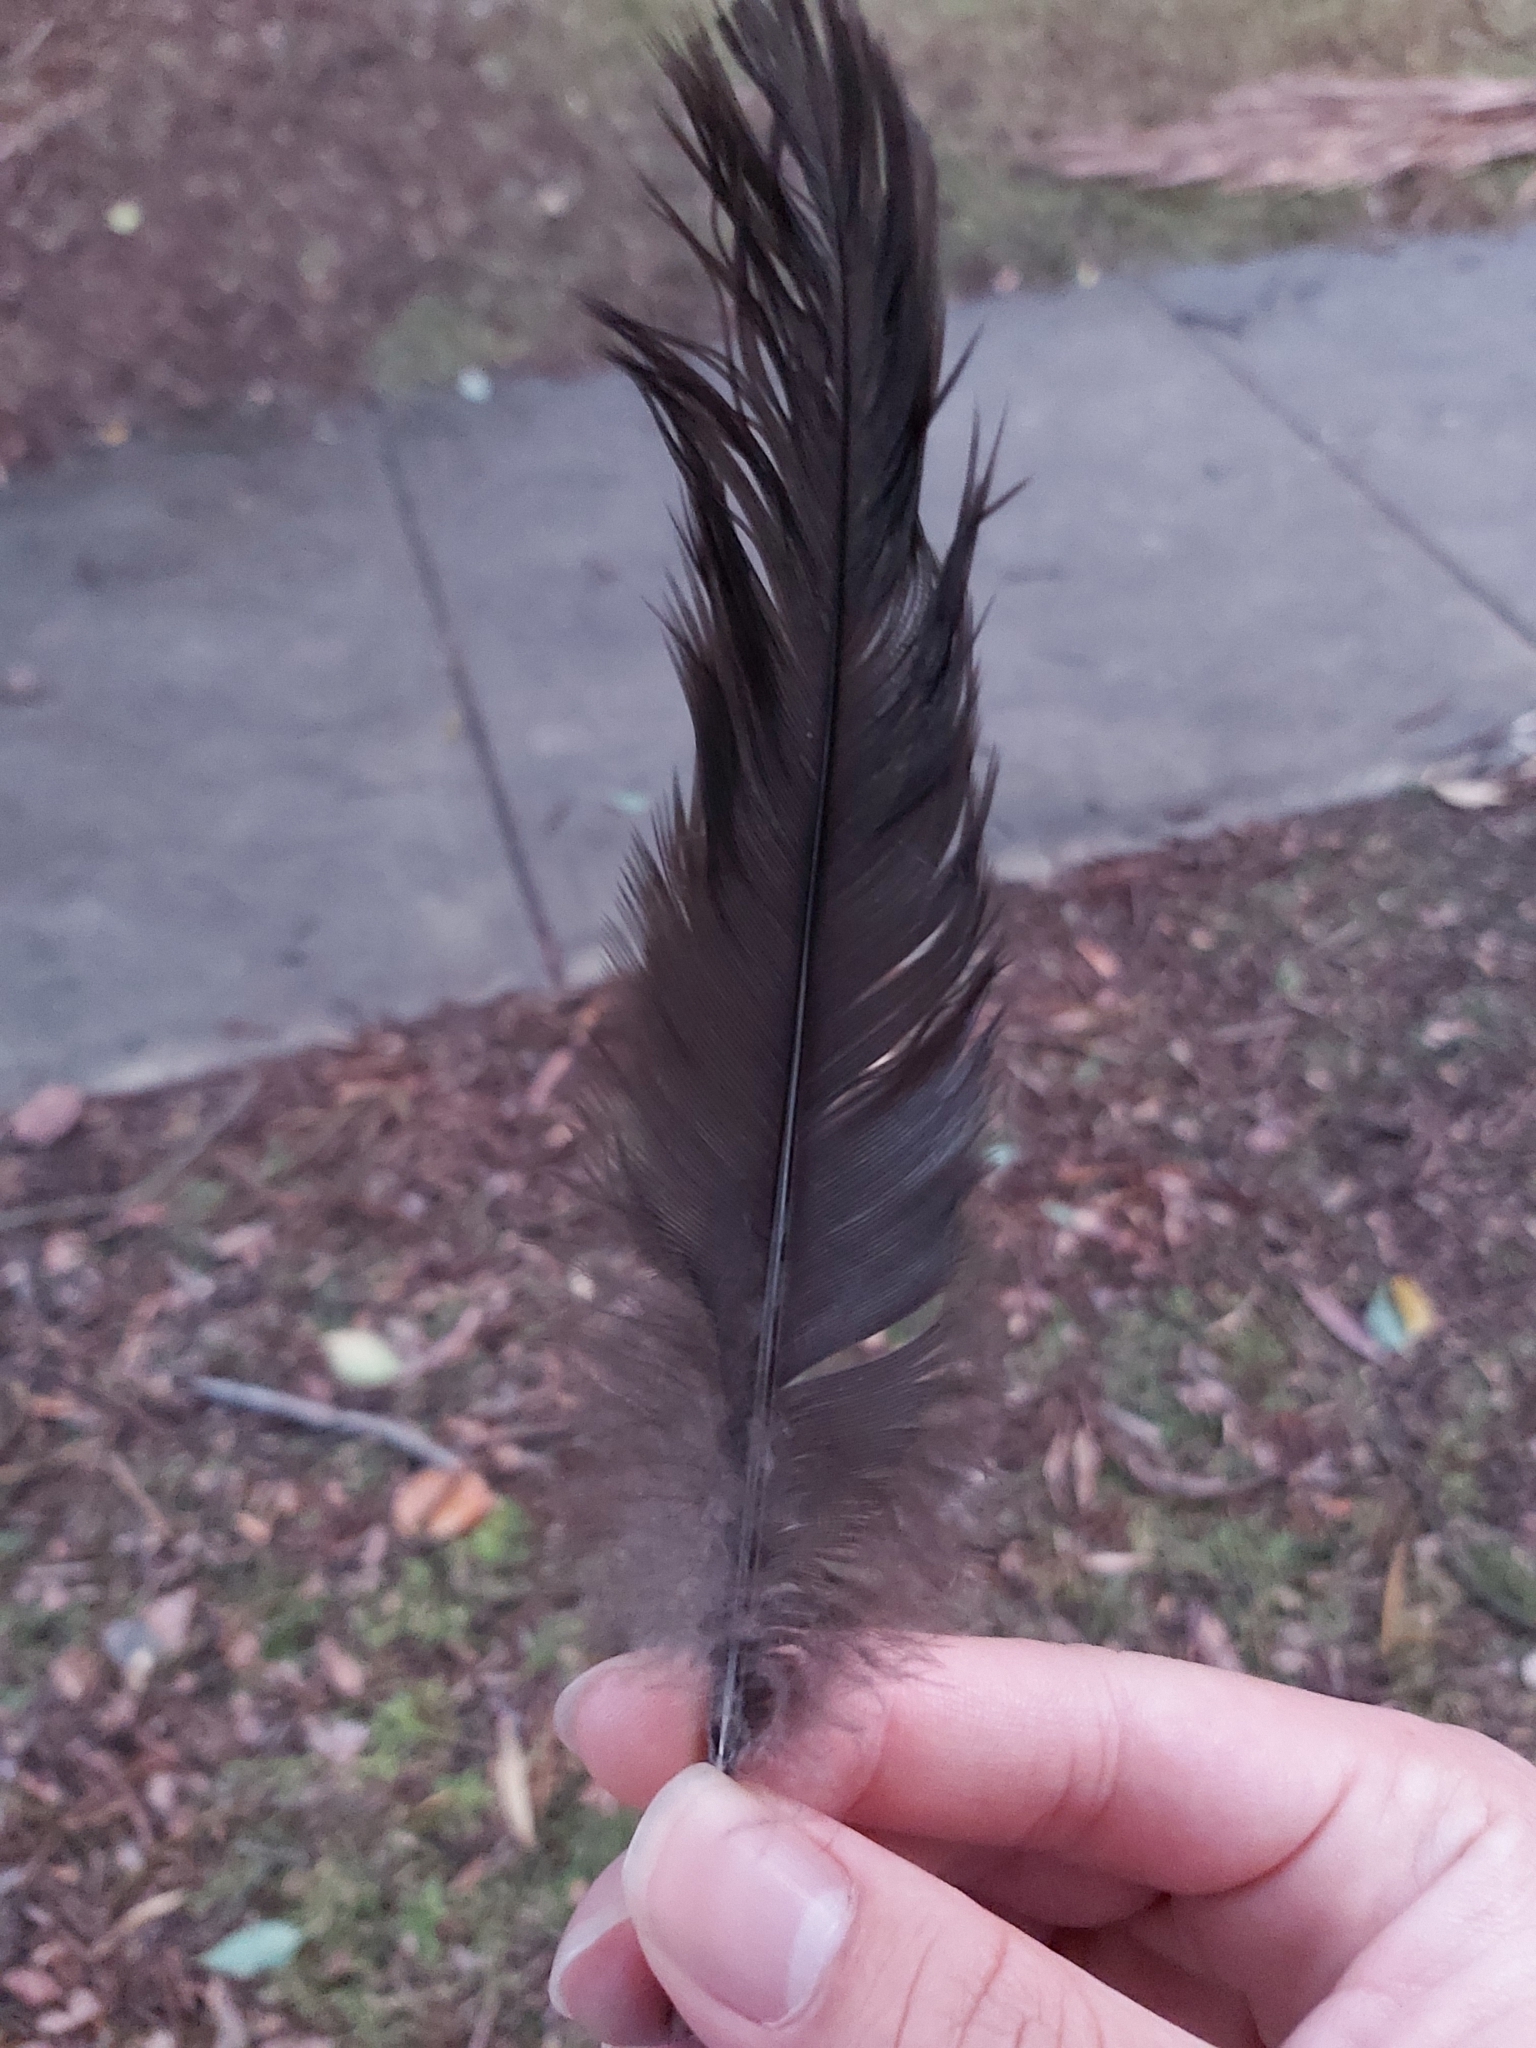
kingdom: Animalia
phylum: Chordata
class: Aves
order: Galliformes
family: Megapodiidae
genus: Alectura
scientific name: Alectura lathami
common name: Australian brushturkey
